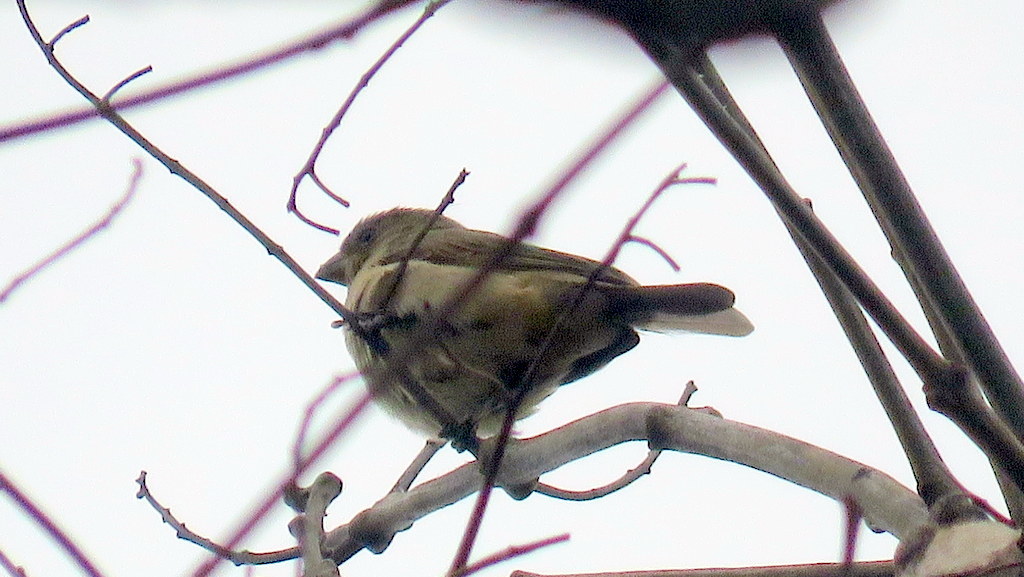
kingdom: Animalia
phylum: Chordata
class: Aves
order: Passeriformes
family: Thraupidae
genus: Sporophila
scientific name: Sporophila caerulescens
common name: Double-collared seedeater
